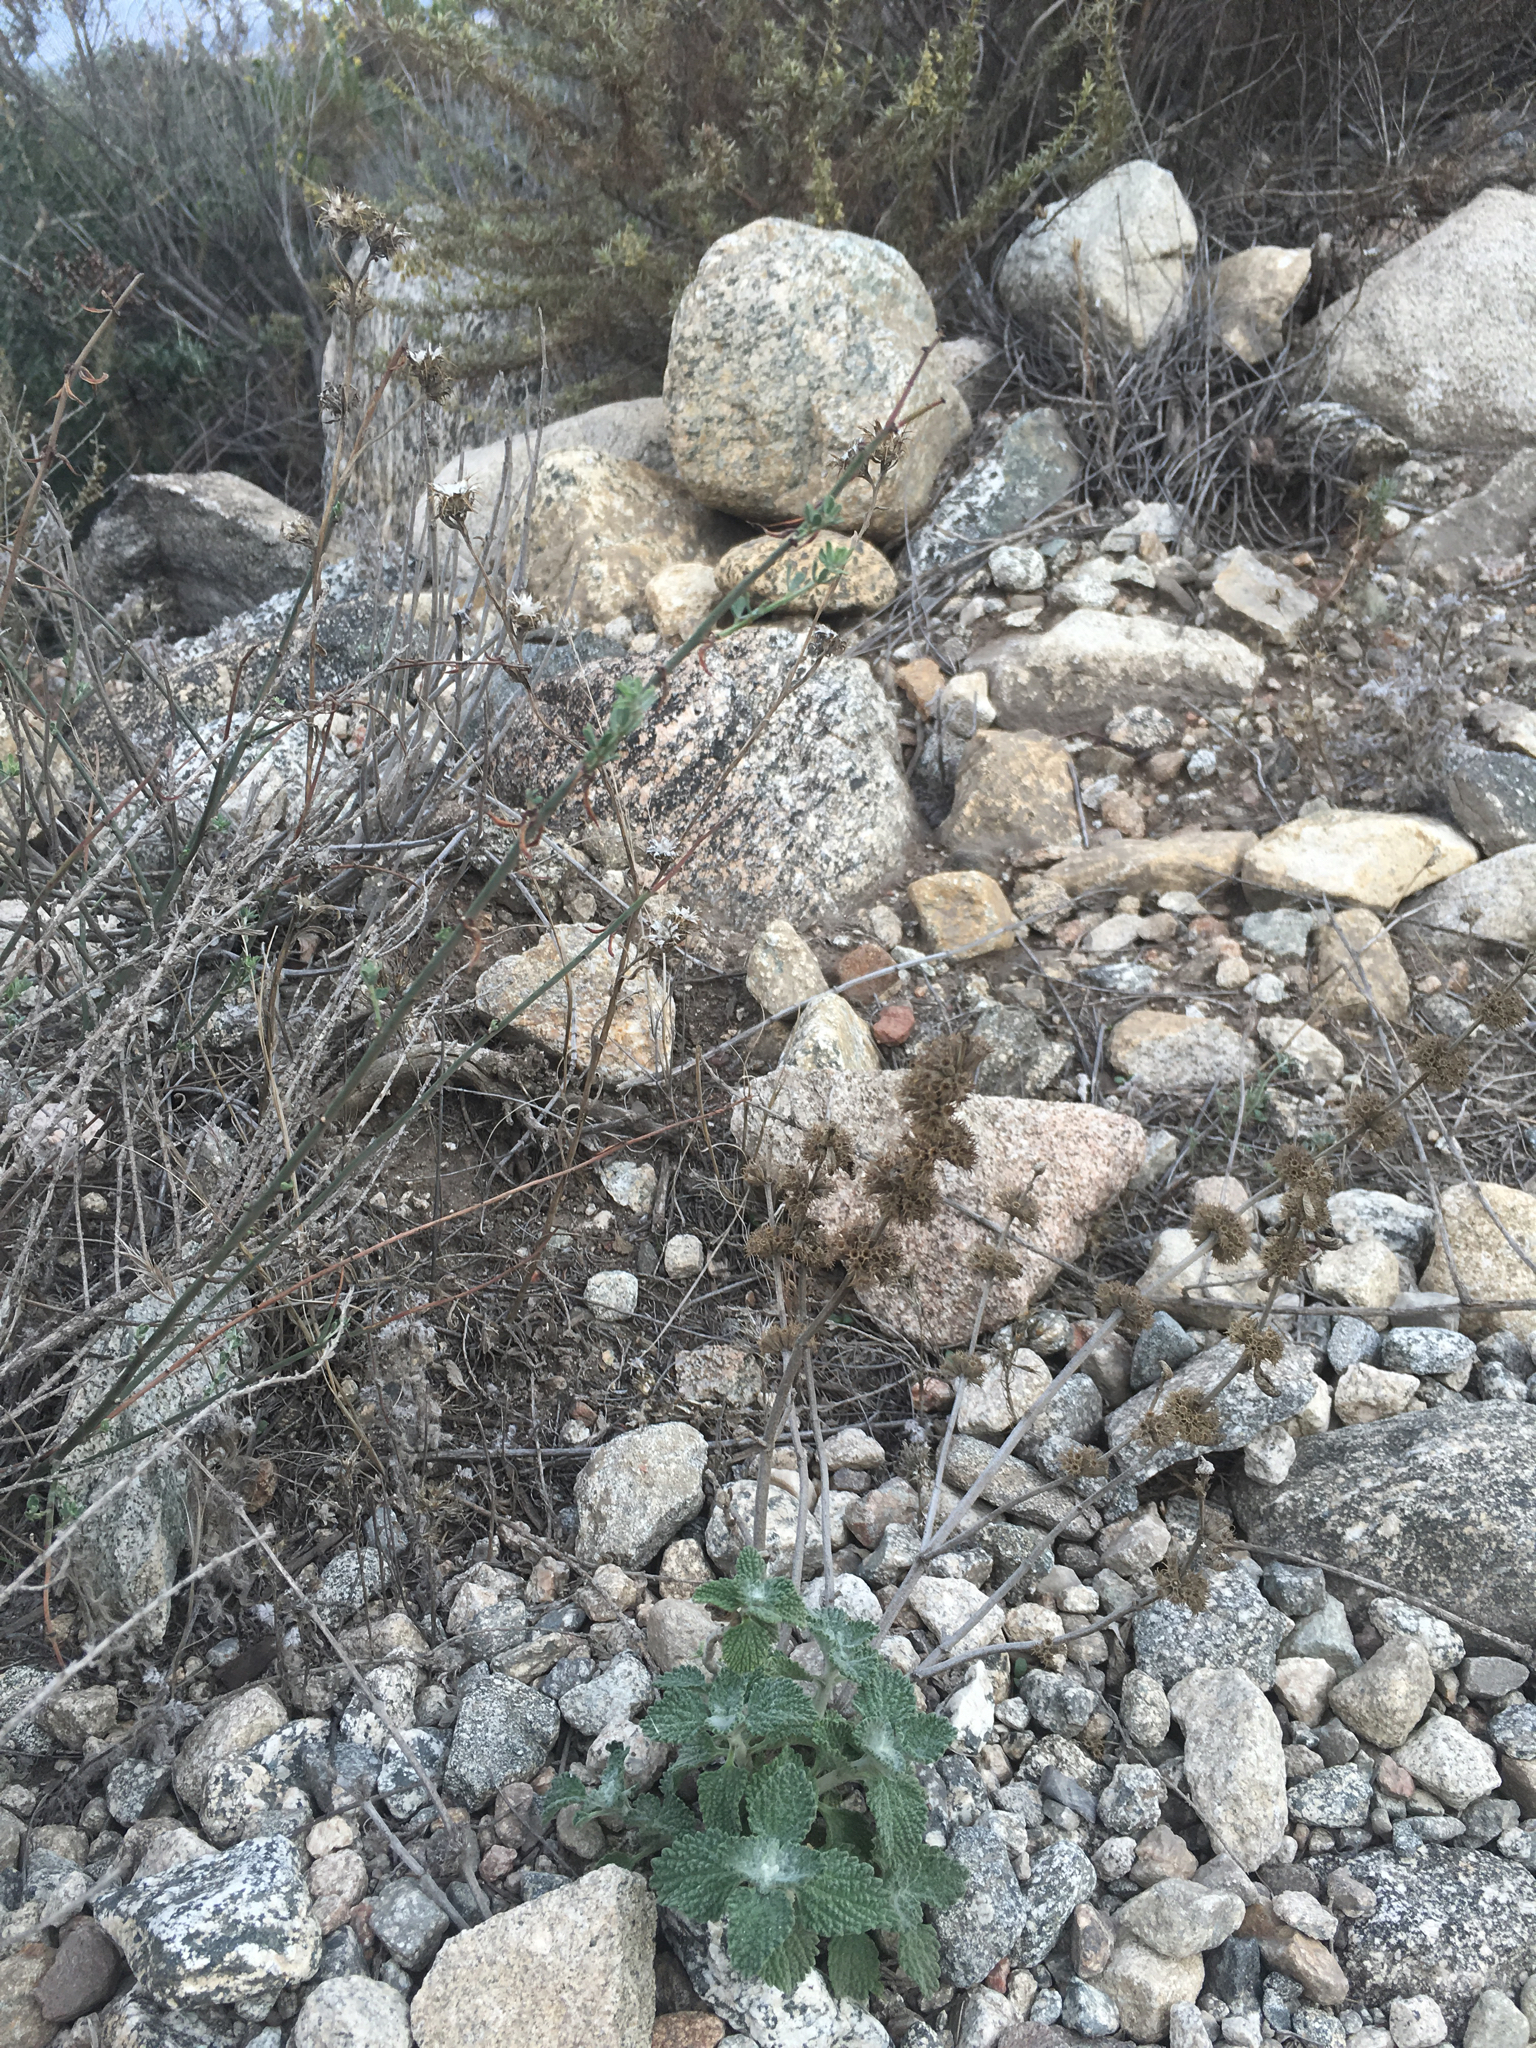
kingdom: Plantae
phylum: Tracheophyta
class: Magnoliopsida
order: Lamiales
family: Lamiaceae
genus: Marrubium
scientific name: Marrubium vulgare
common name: Horehound
